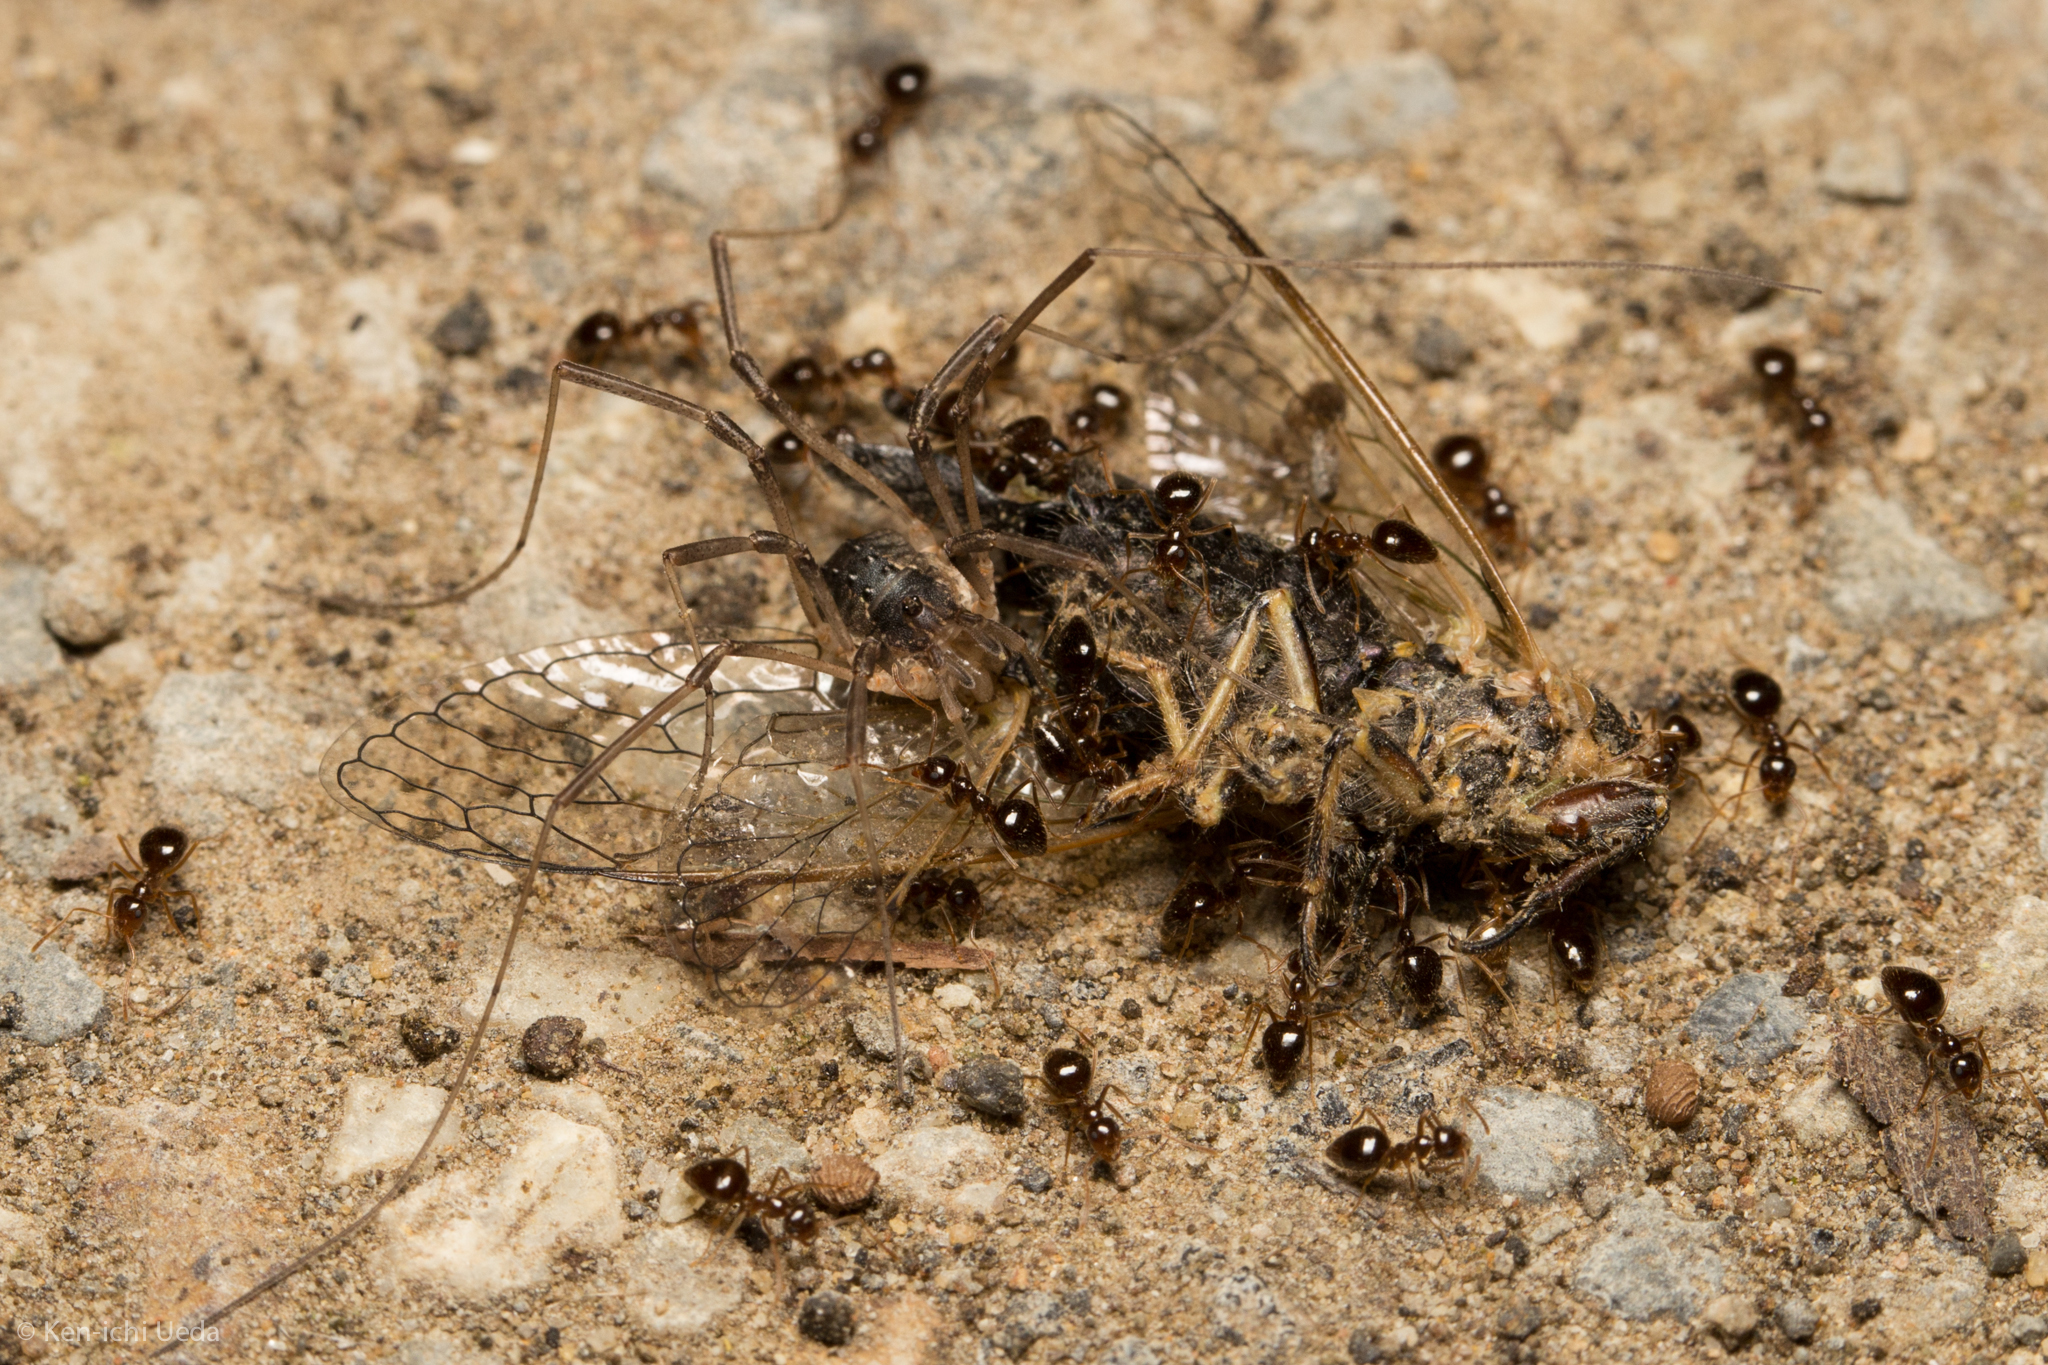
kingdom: Animalia
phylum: Arthropoda
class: Insecta
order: Hymenoptera
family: Formicidae
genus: Prenolepis
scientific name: Prenolepis imparis
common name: Small honey ant
